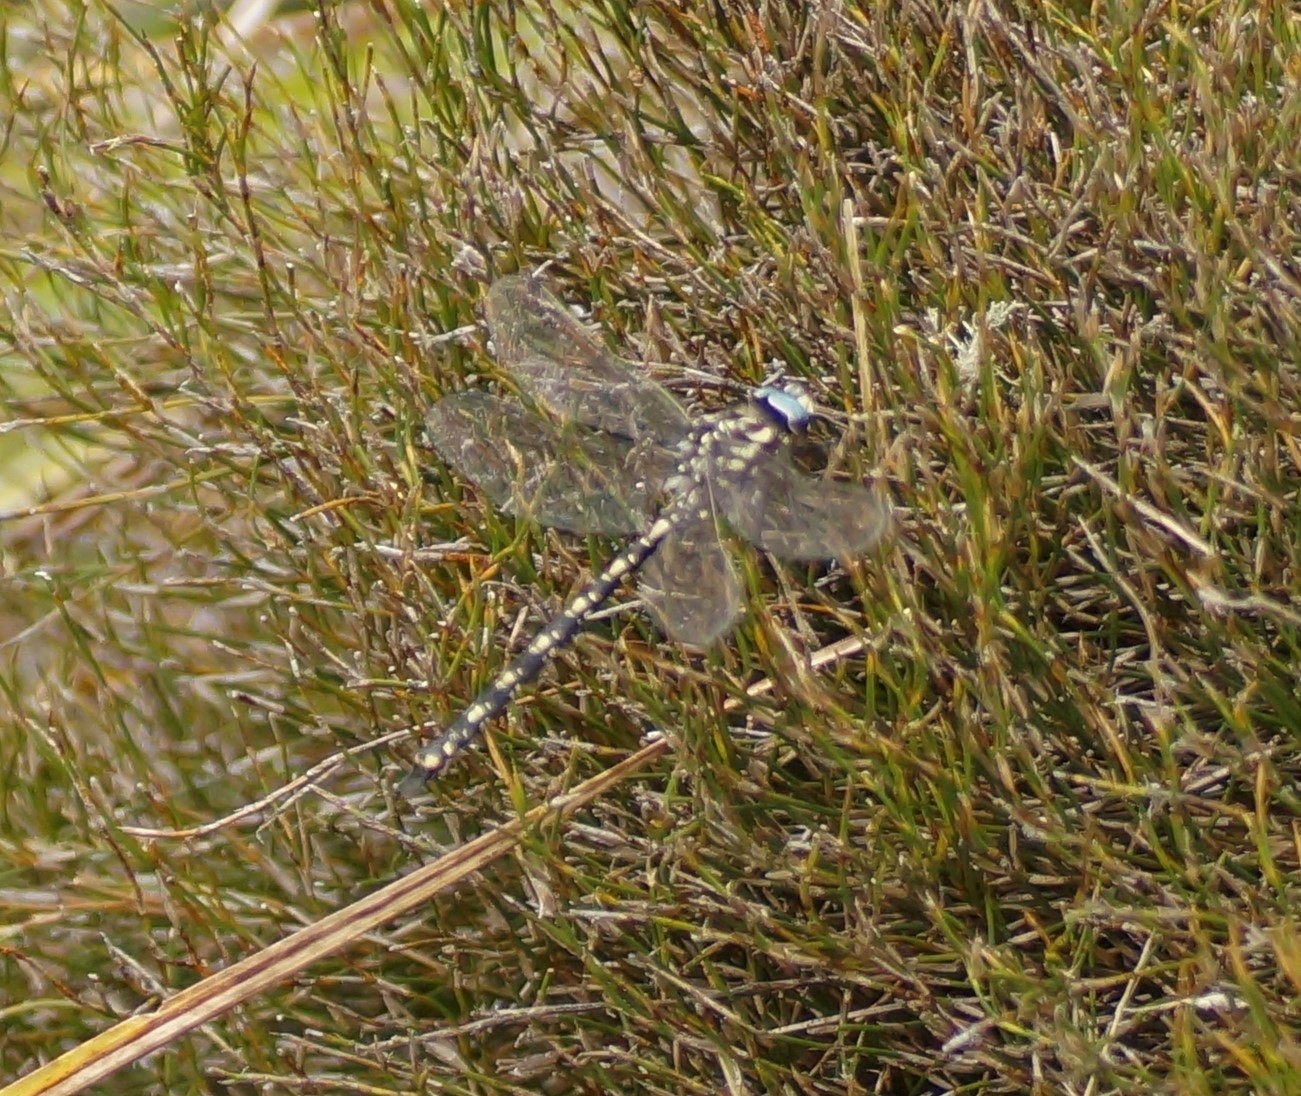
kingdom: Animalia
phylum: Arthropoda
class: Insecta
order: Odonata
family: Aeshnidae
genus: Austroaeschna
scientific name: Austroaeschna flavomaculata
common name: Alpine darner
